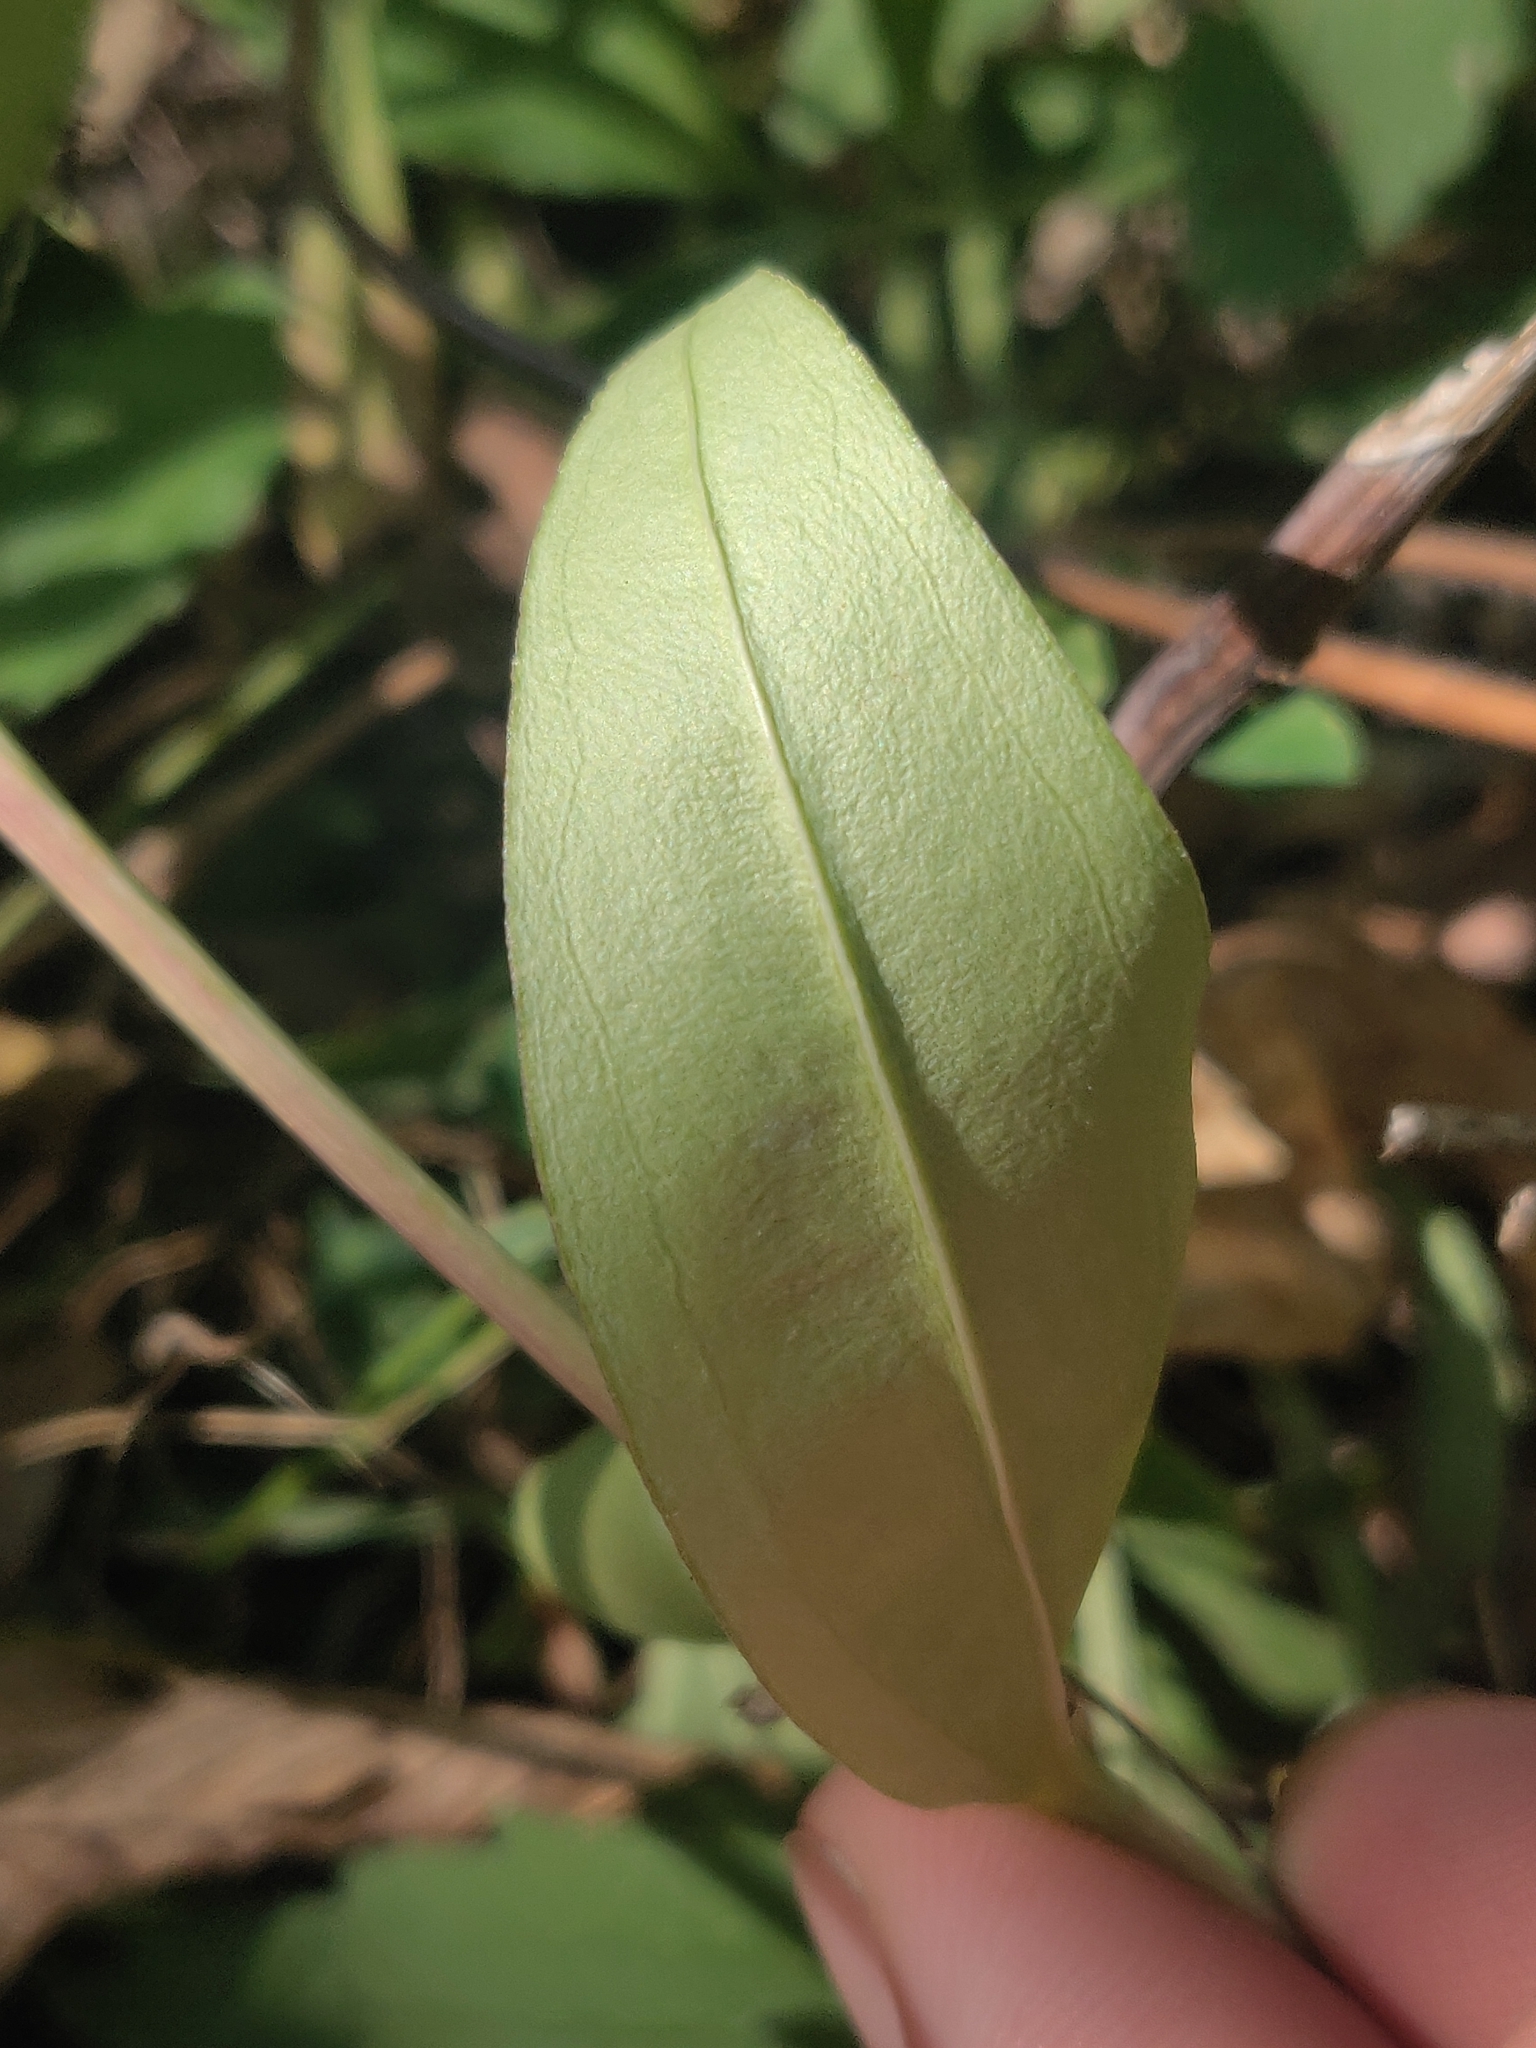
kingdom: Plantae
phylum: Tracheophyta
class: Magnoliopsida
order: Gentianales
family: Gentianaceae
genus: Gentiana
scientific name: Gentiana andrewsii
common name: Bottle gentian
